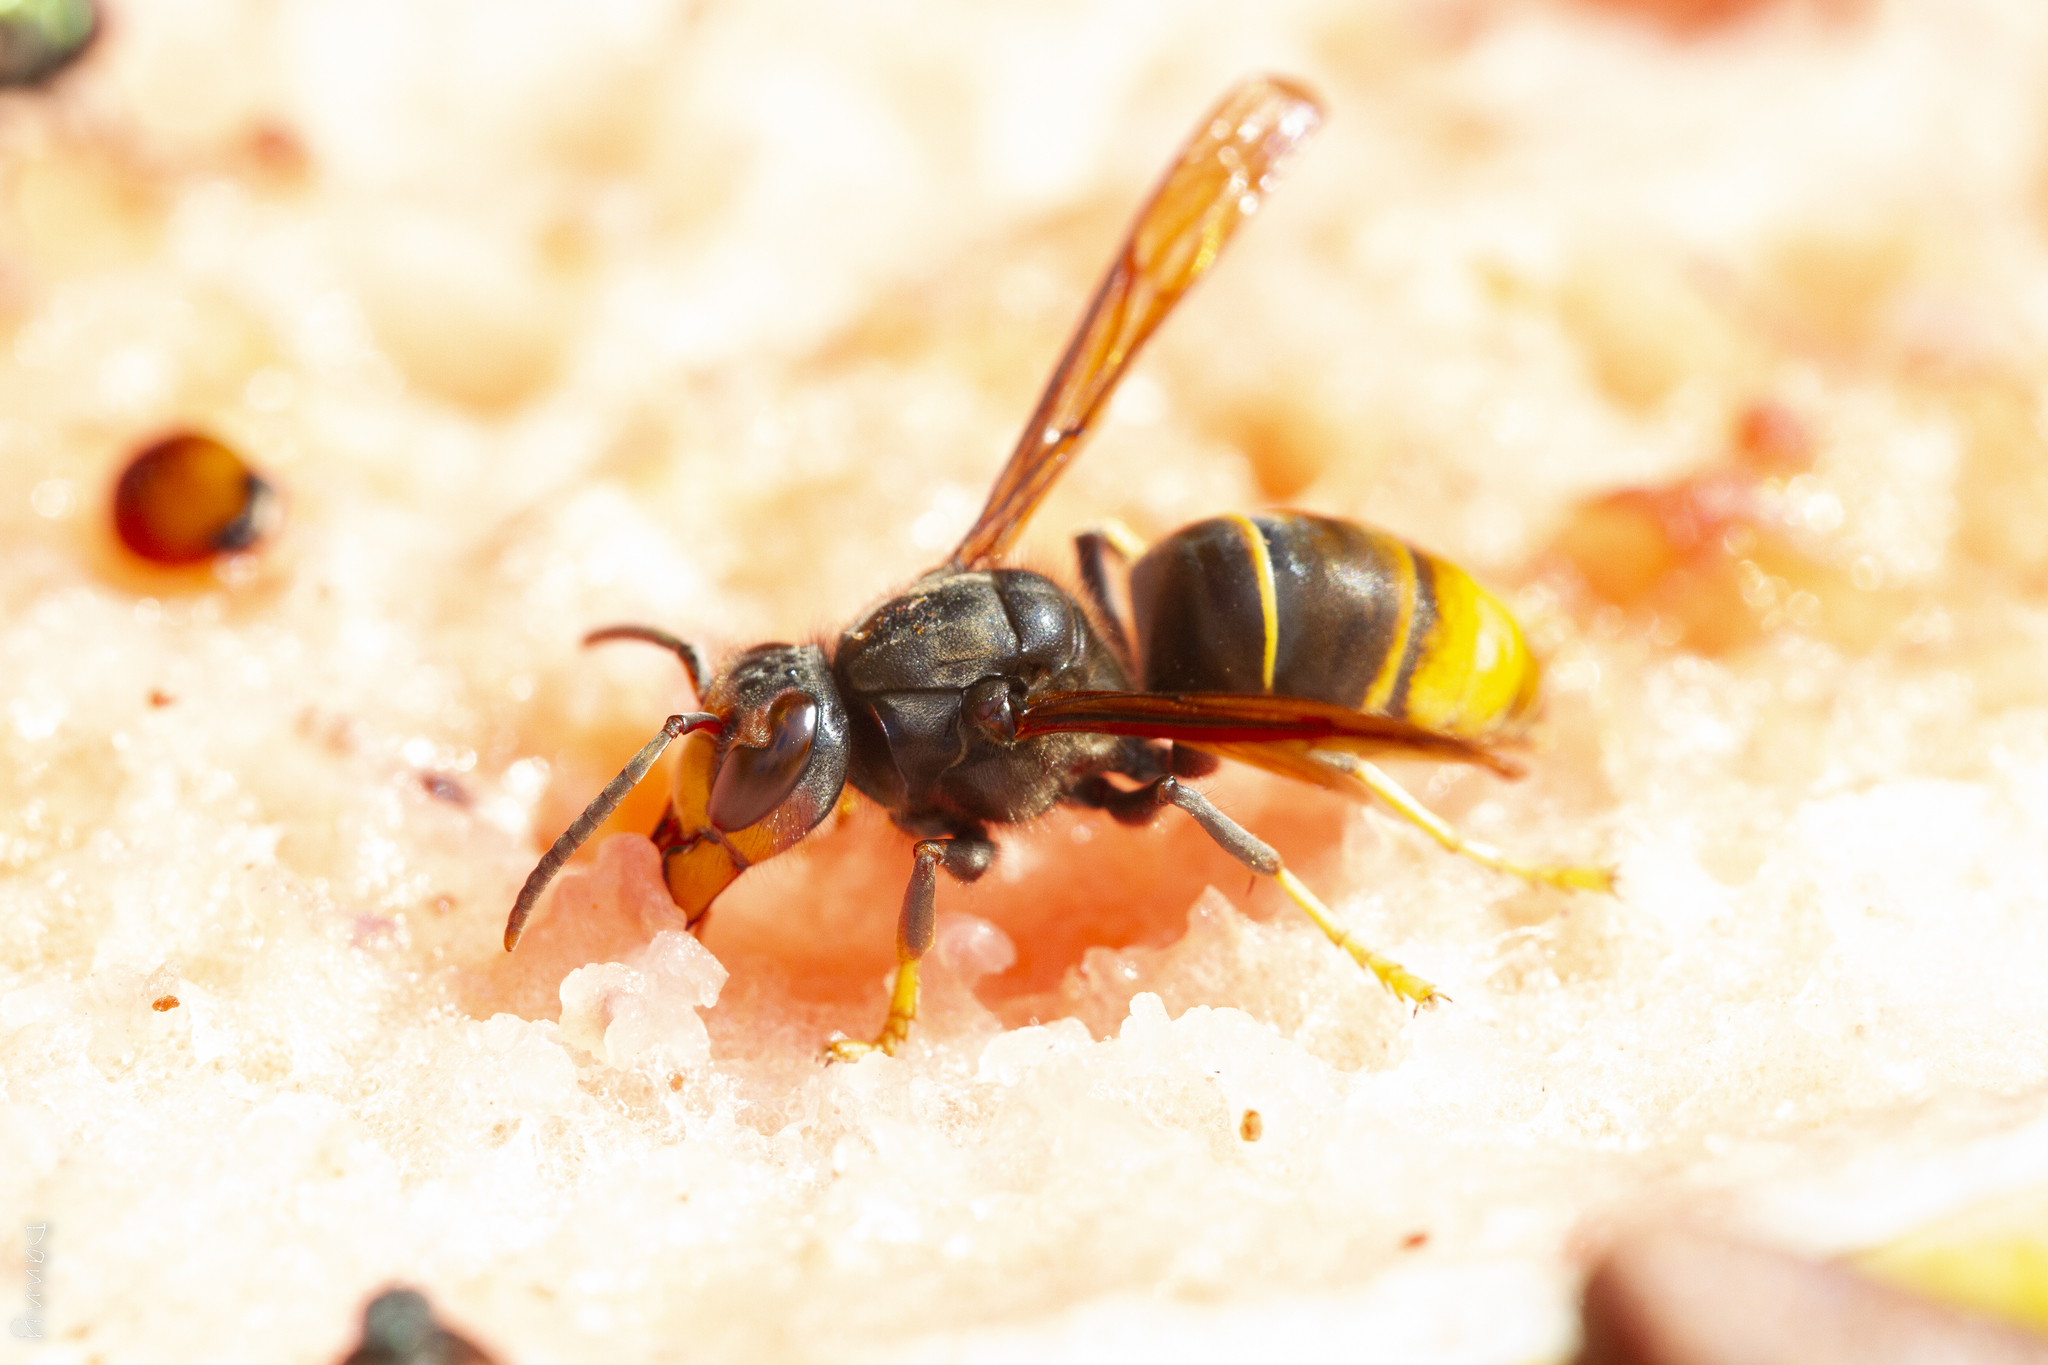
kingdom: Animalia
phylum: Arthropoda
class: Insecta
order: Hymenoptera
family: Vespidae
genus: Vespa
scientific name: Vespa velutina
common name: Asian hornet
